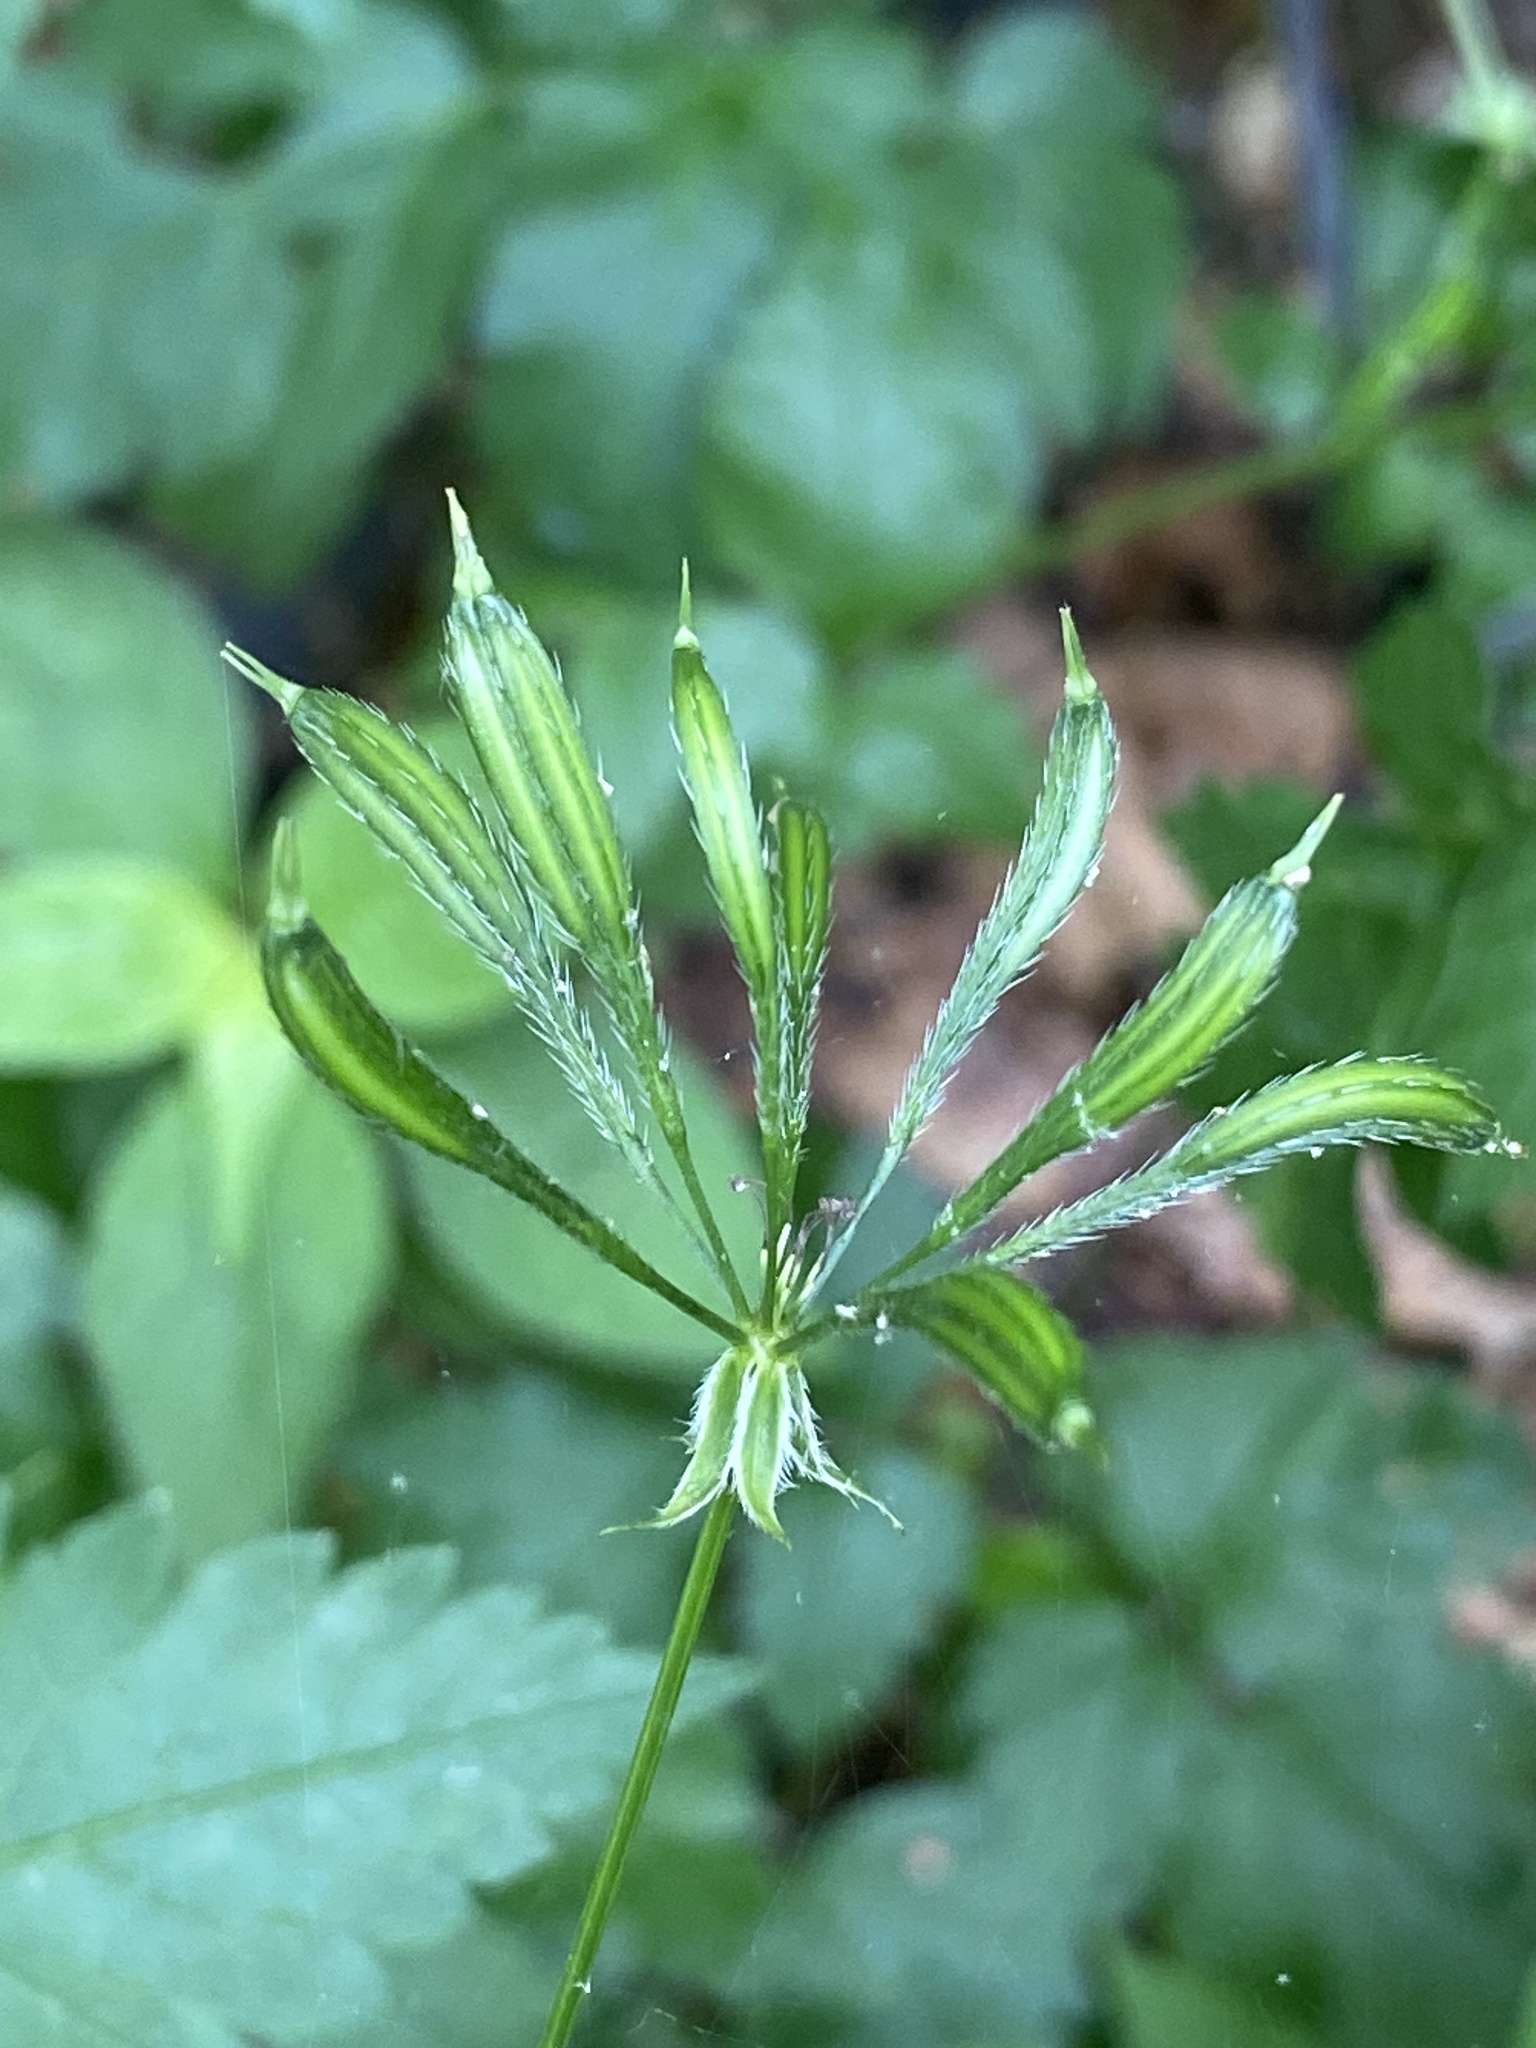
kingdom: Plantae
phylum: Tracheophyta
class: Magnoliopsida
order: Apiales
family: Apiaceae
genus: Osmorhiza
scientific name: Osmorhiza longistylis
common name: Smooth sweet cicely
